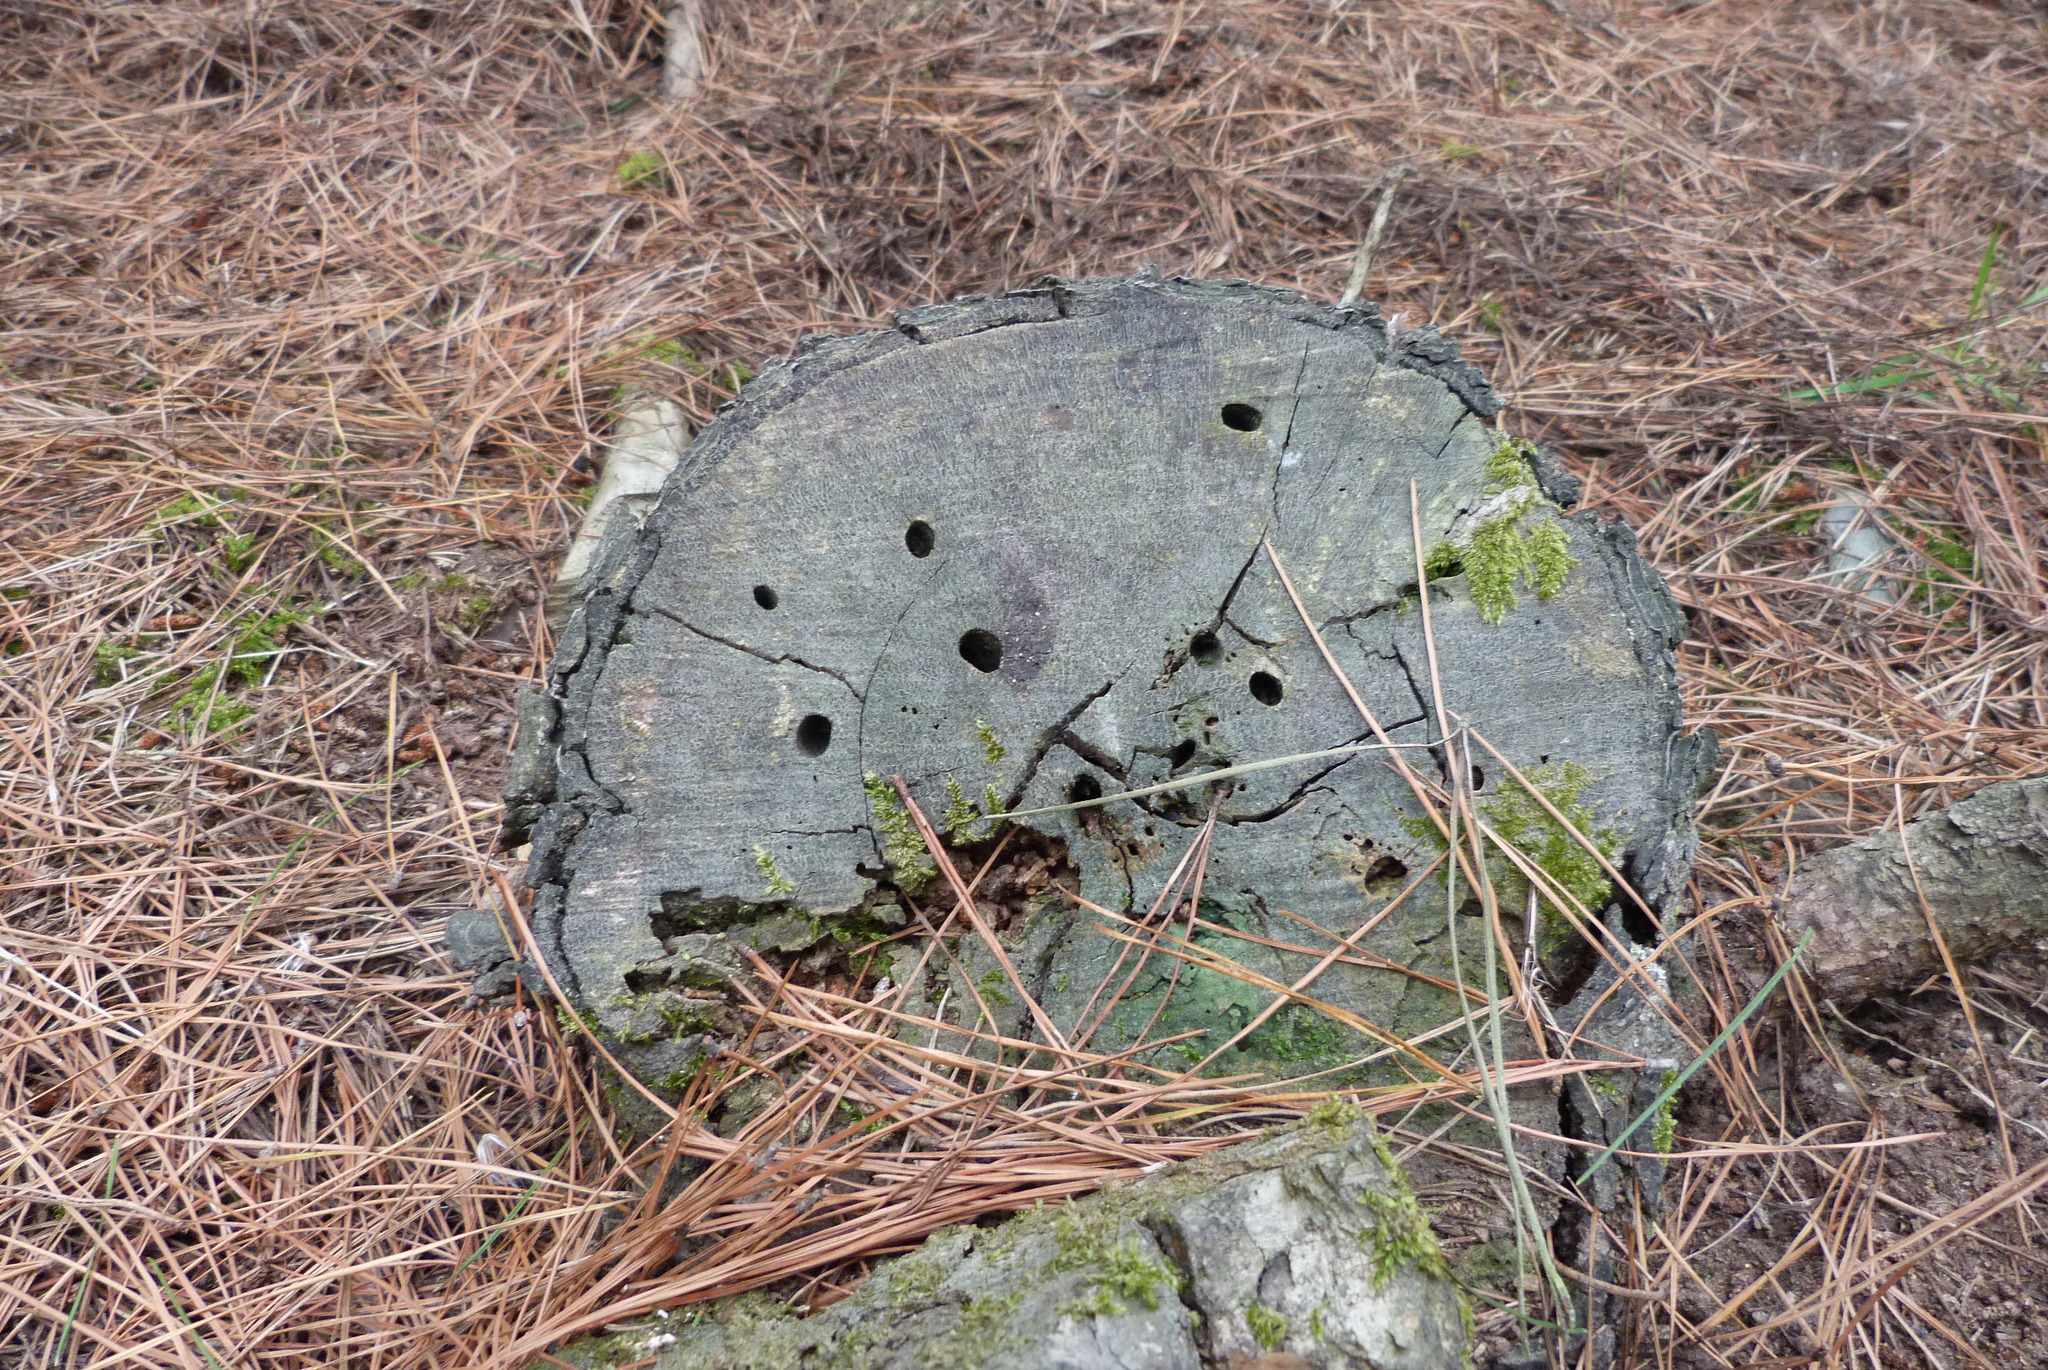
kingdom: Animalia
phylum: Arthropoda
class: Insecta
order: Coleoptera
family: Cerambycidae
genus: Prionoplus
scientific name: Prionoplus reticularis
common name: Huhu beetle
